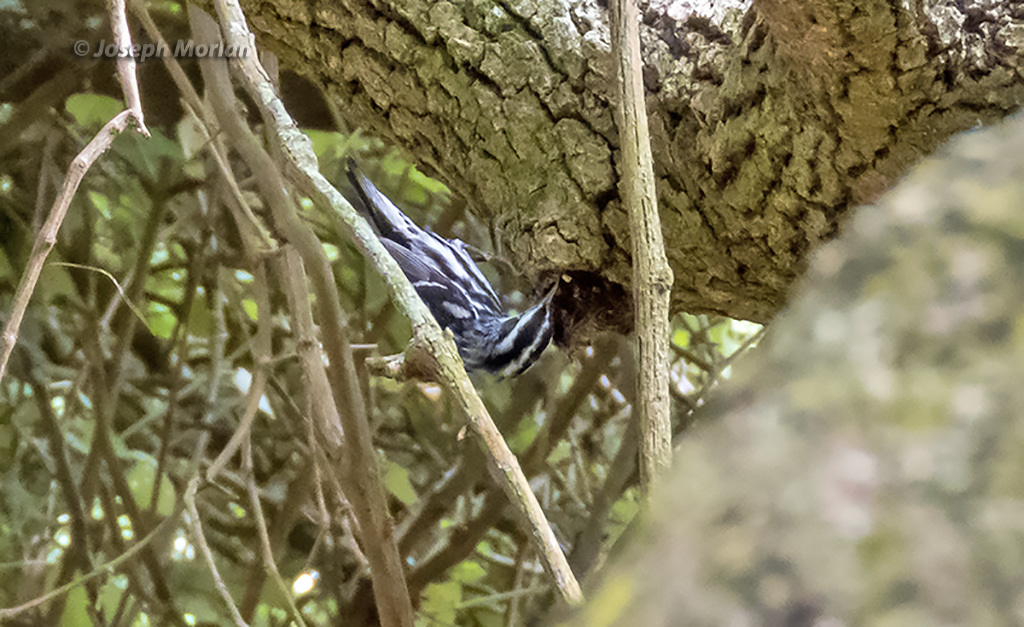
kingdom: Animalia
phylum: Chordata
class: Aves
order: Passeriformes
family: Parulidae
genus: Mniotilta
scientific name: Mniotilta varia
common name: Black-and-white warbler
